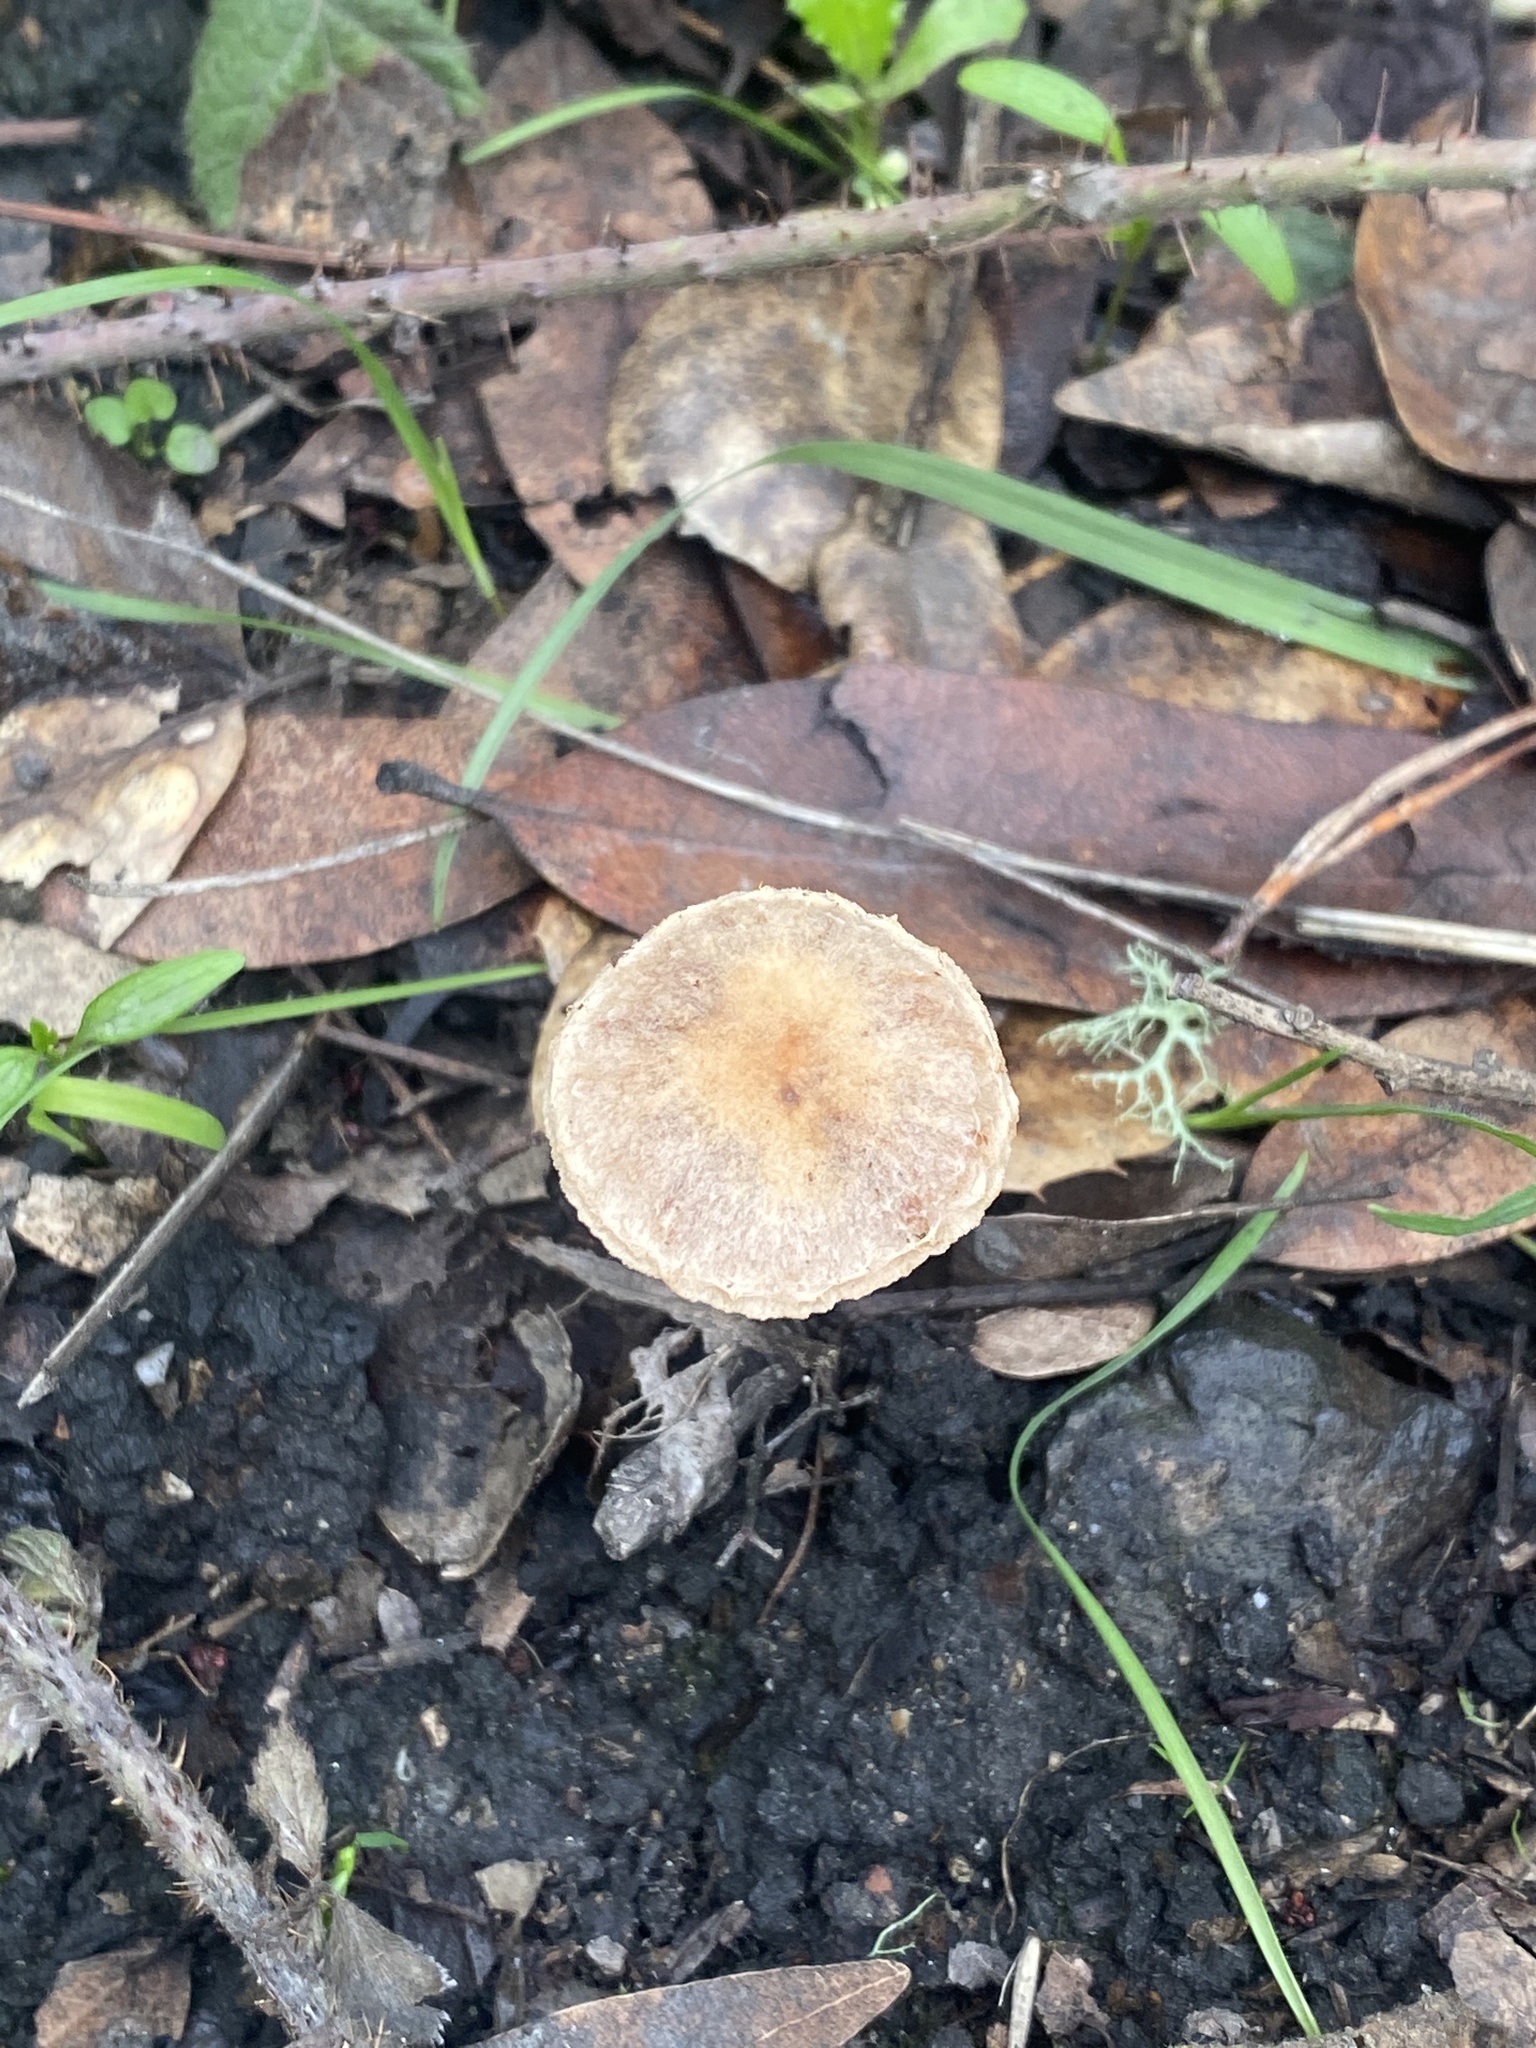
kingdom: Fungi
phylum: Basidiomycota
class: Agaricomycetes
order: Agaricales
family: Tubariaceae
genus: Tubaria
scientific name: Tubaria furfuracea
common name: Scurfy twiglet
